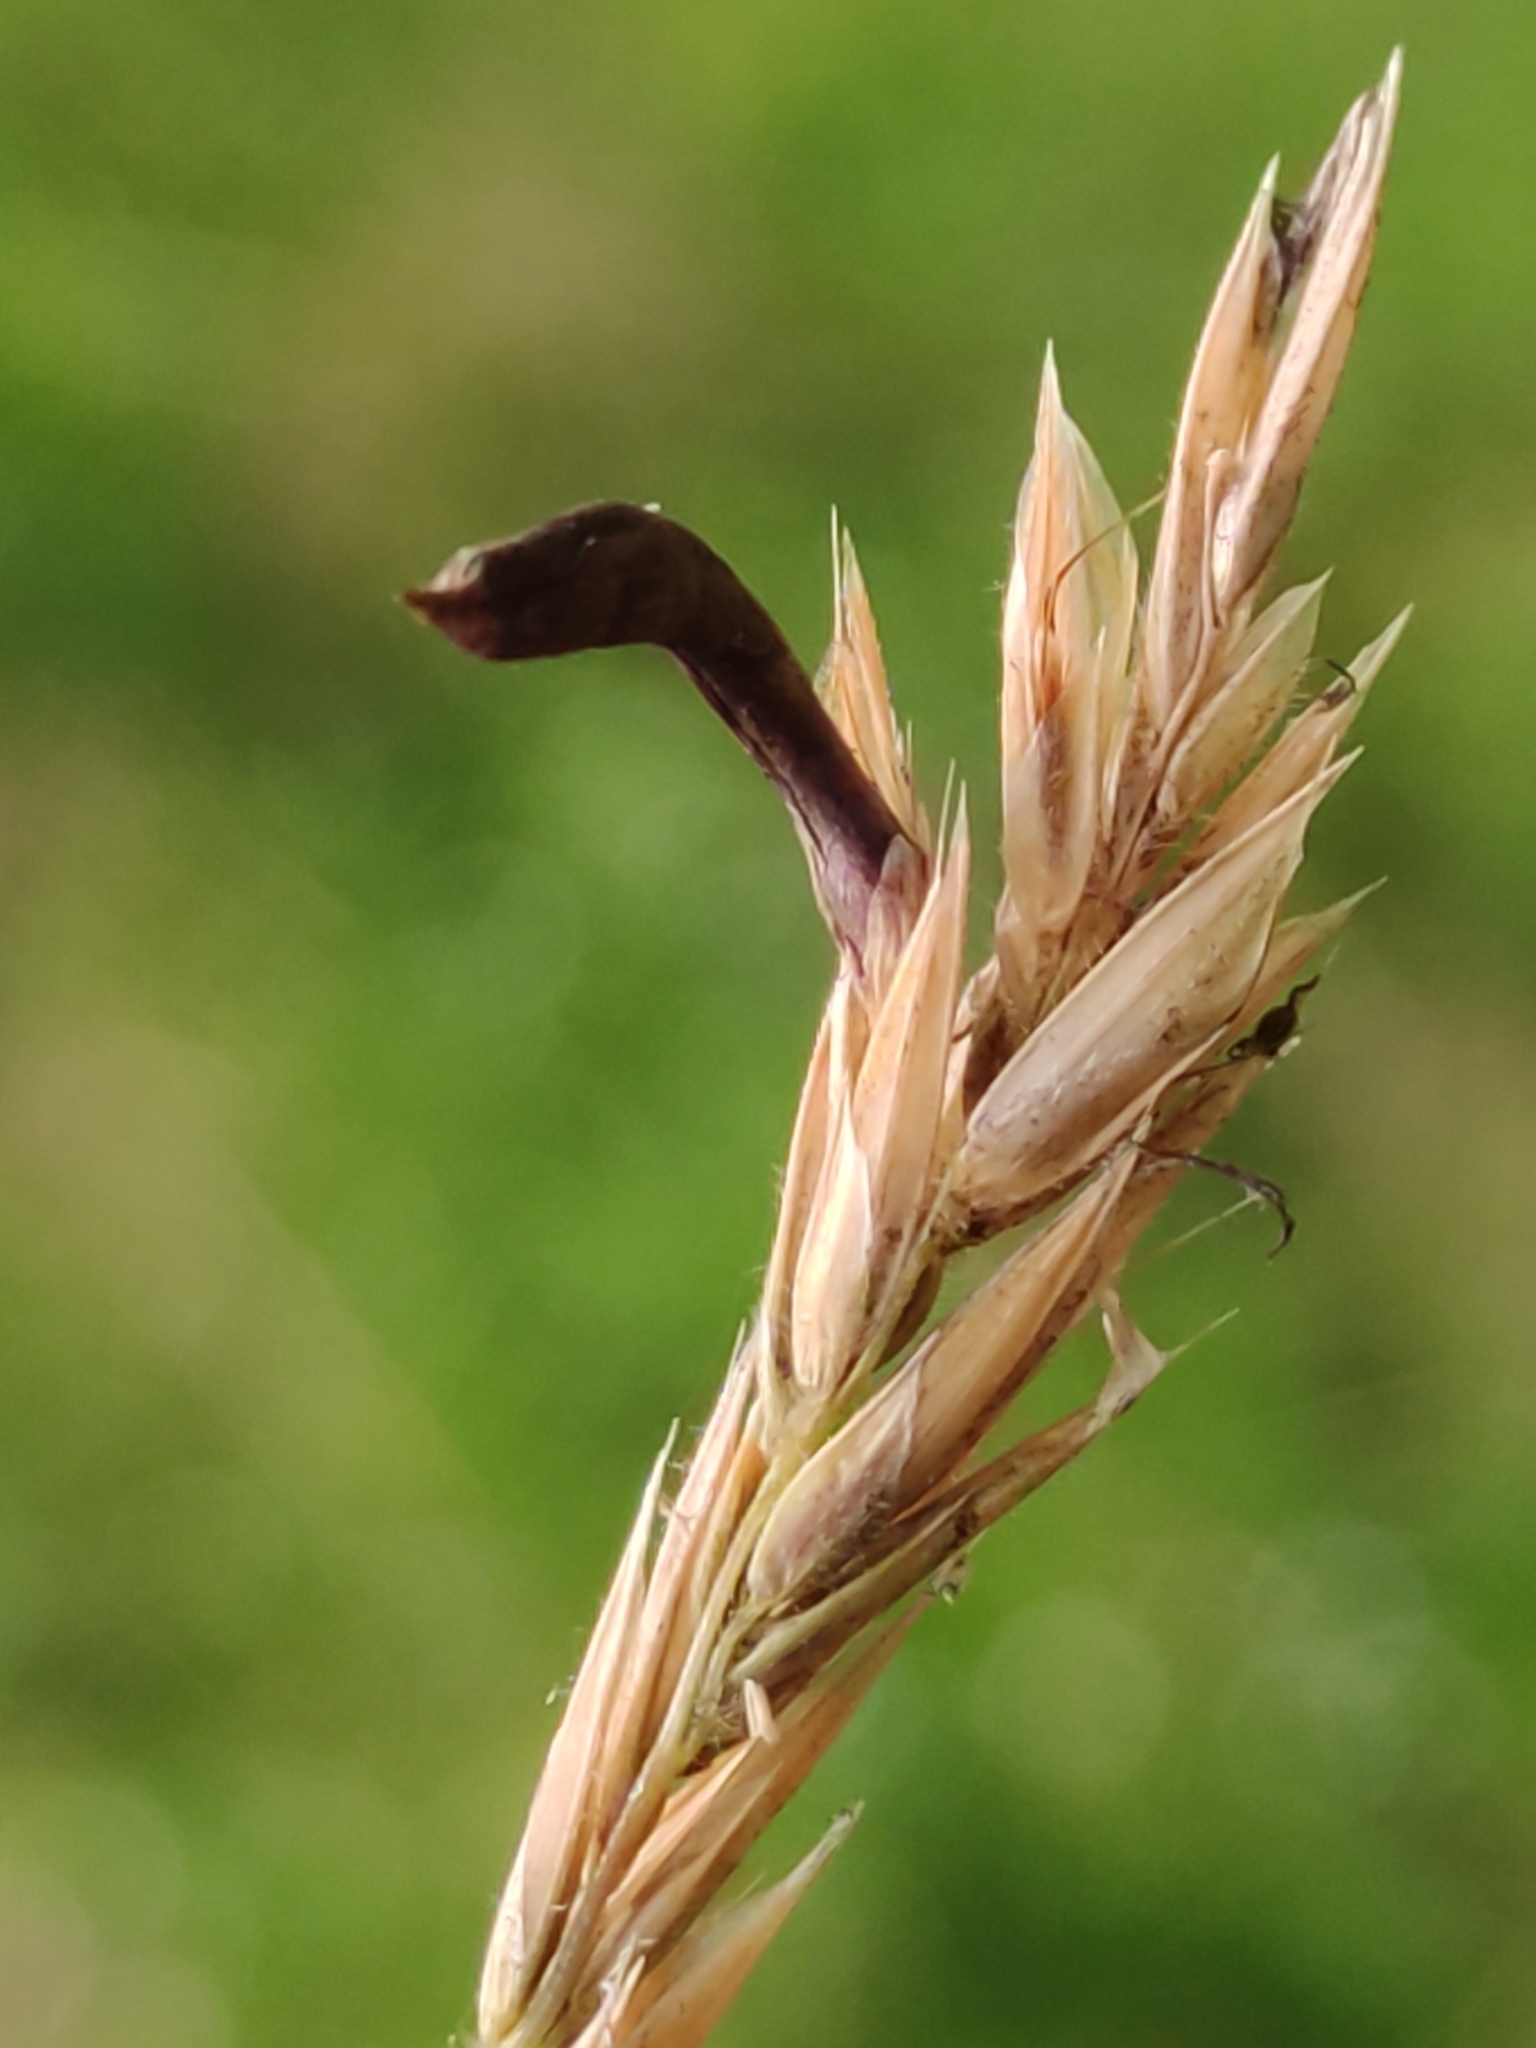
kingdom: Fungi
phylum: Ascomycota
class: Sordariomycetes
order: Hypocreales
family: Clavicipitaceae
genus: Claviceps
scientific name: Claviceps purpurea
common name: Rye ergot
